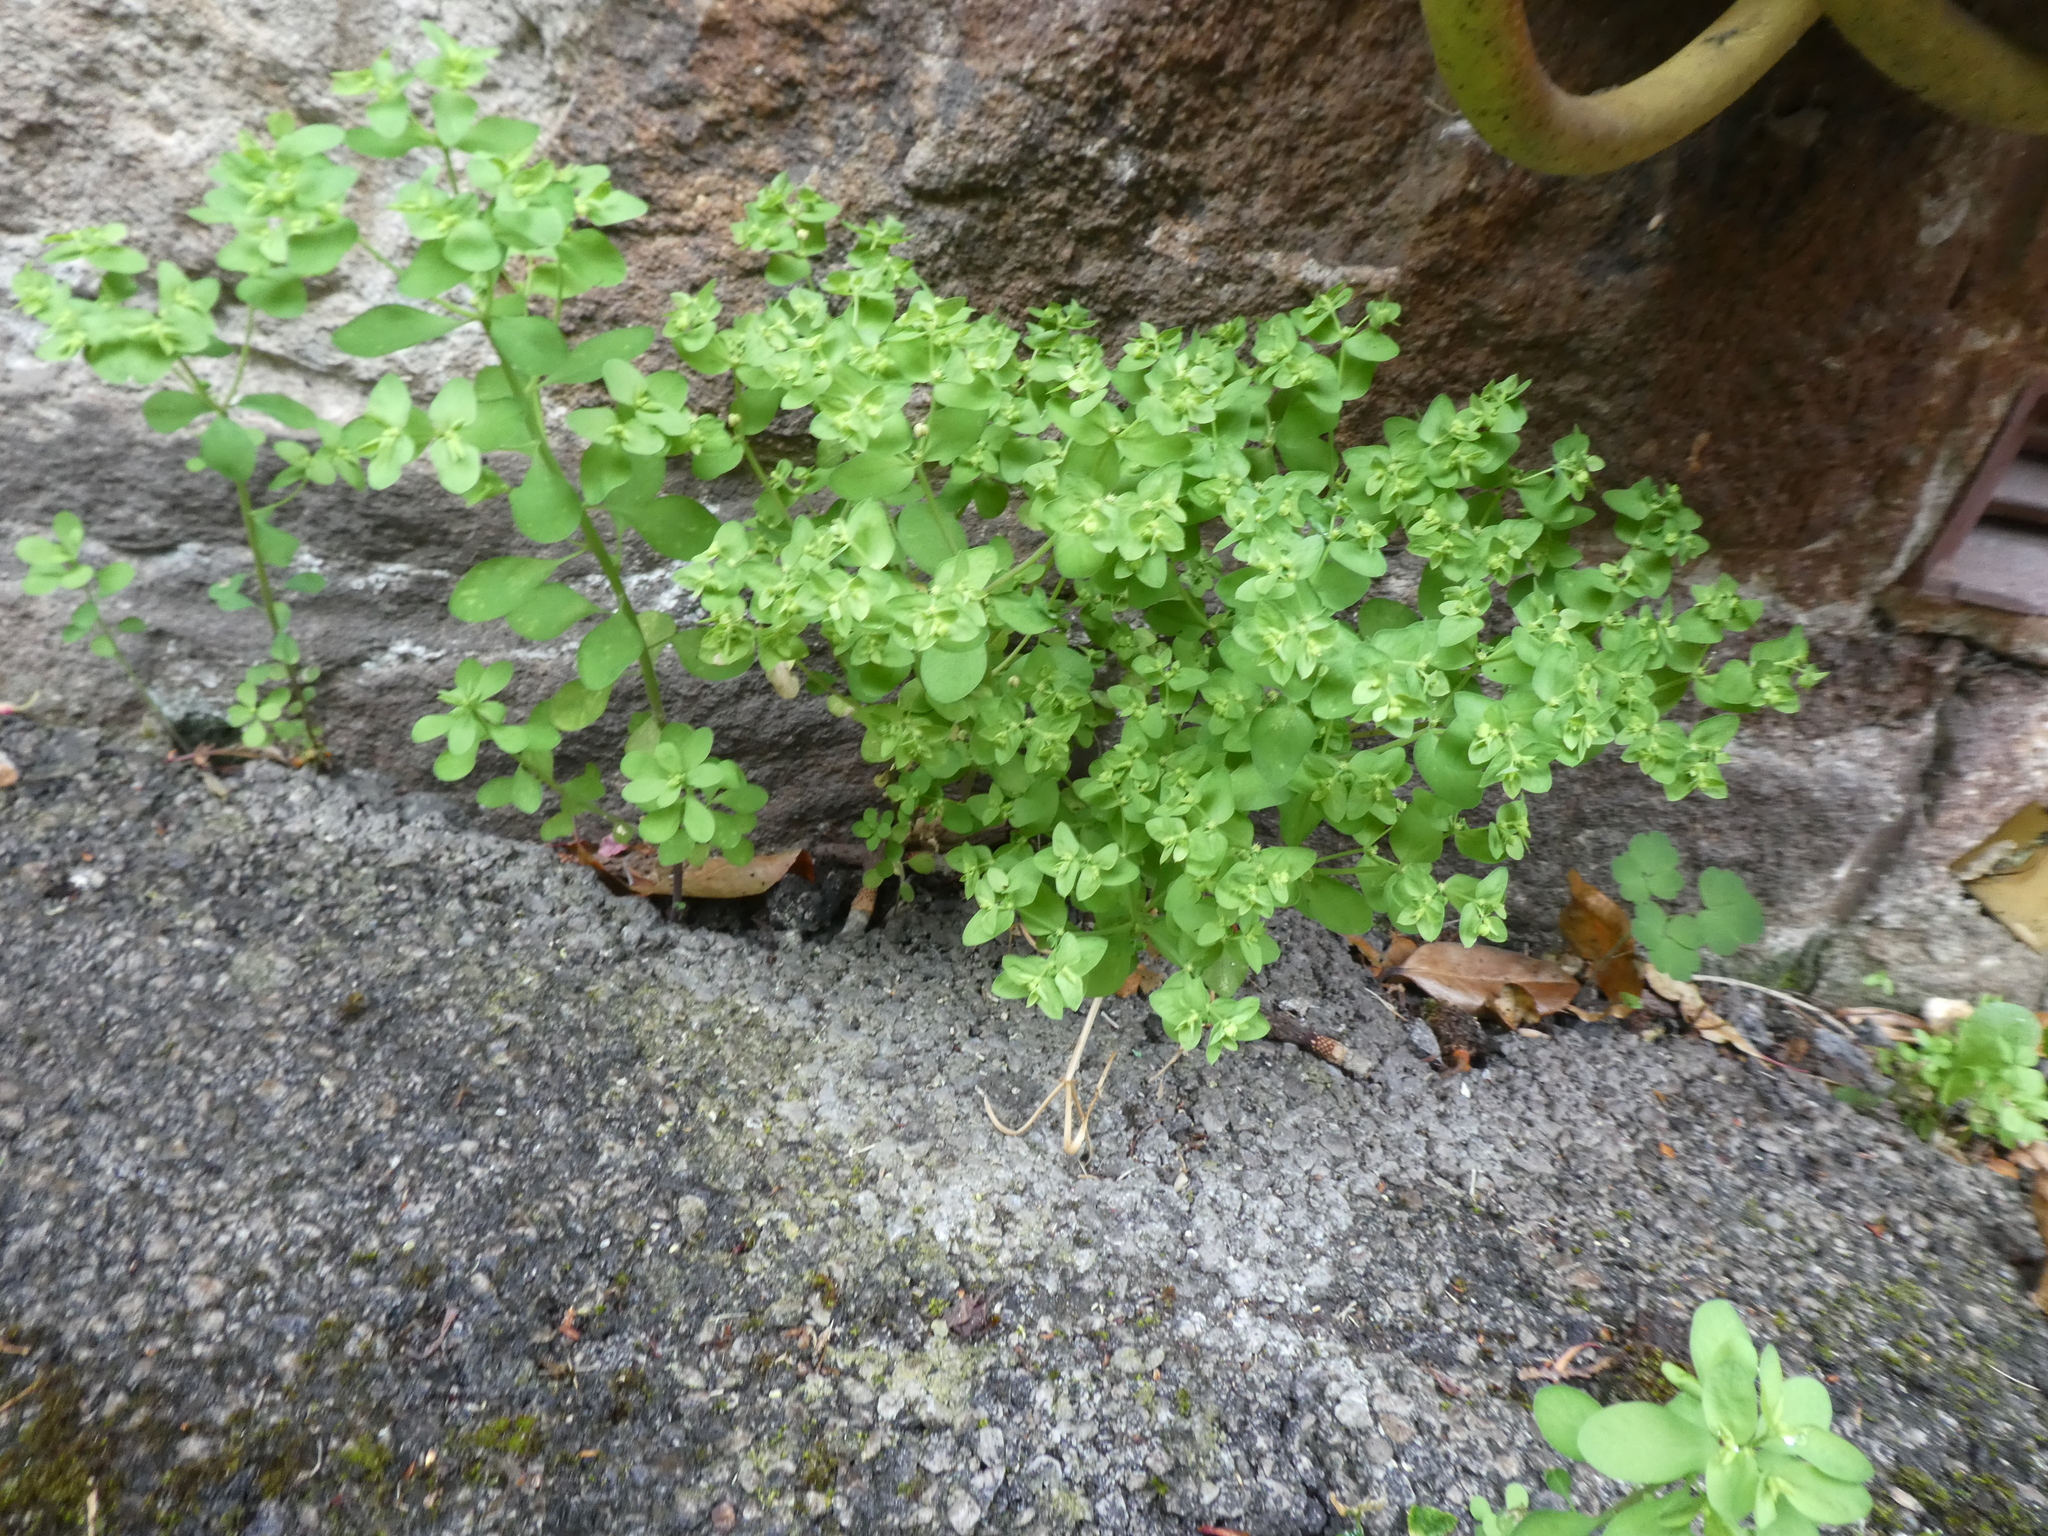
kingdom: Plantae
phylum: Tracheophyta
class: Magnoliopsida
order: Malpighiales
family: Euphorbiaceae
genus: Euphorbia
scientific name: Euphorbia peplus
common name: Petty spurge
